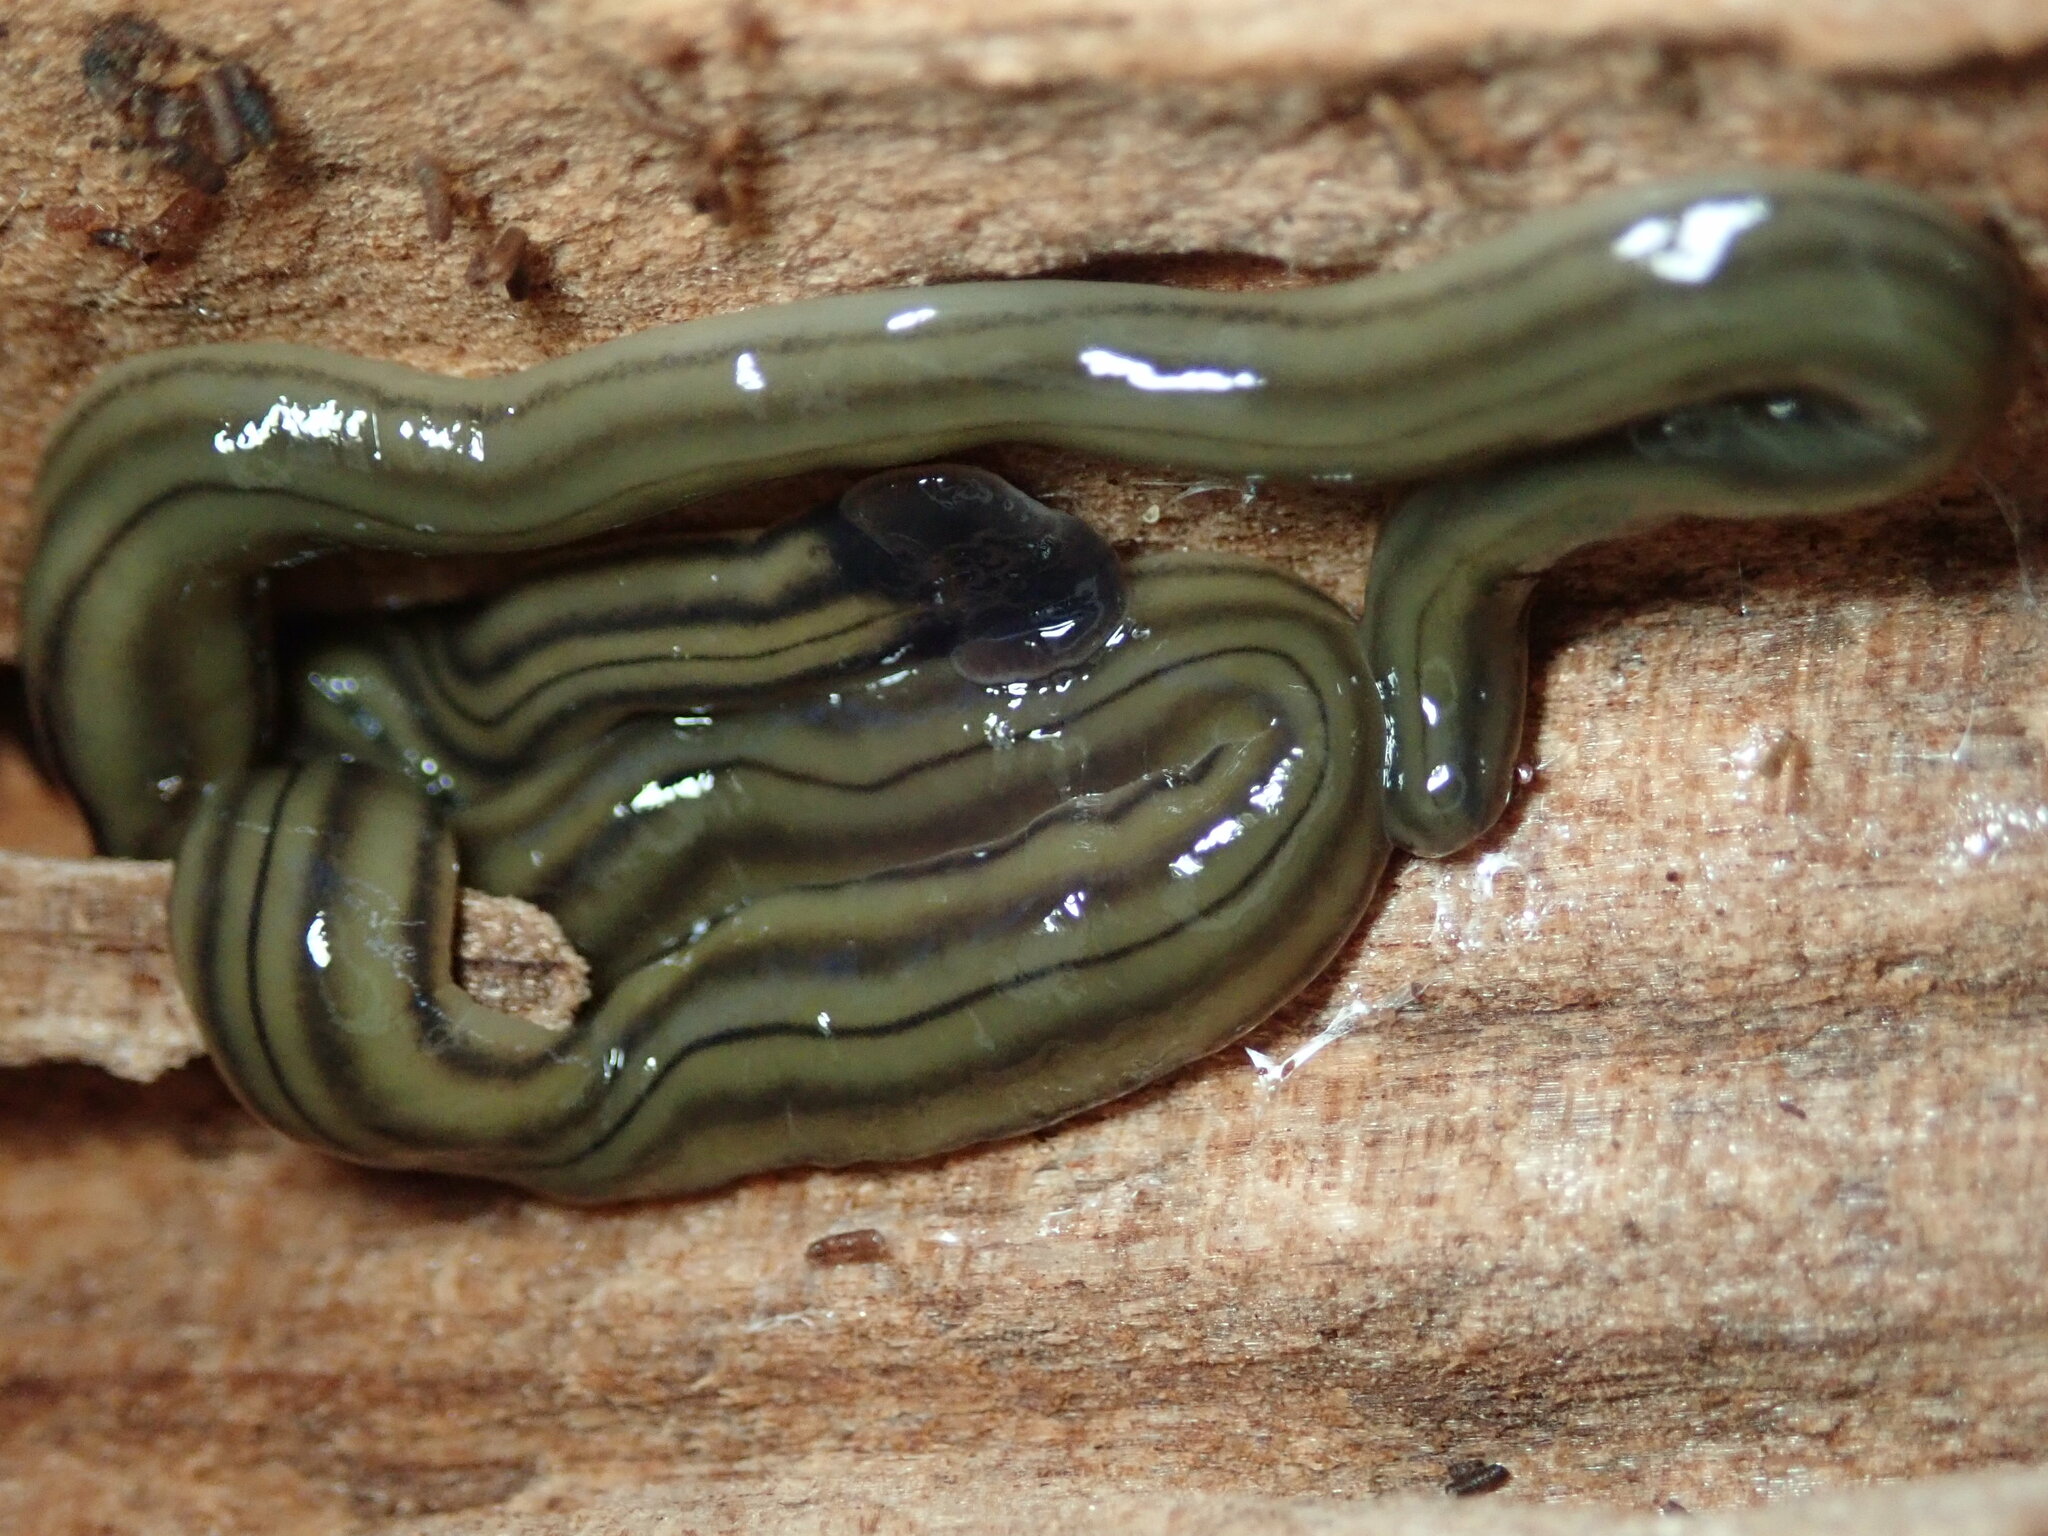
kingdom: Animalia
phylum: Platyhelminthes
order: Tricladida
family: Geoplanidae
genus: Bipalium
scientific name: Bipalium kewense
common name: Hammerhead flatworm
